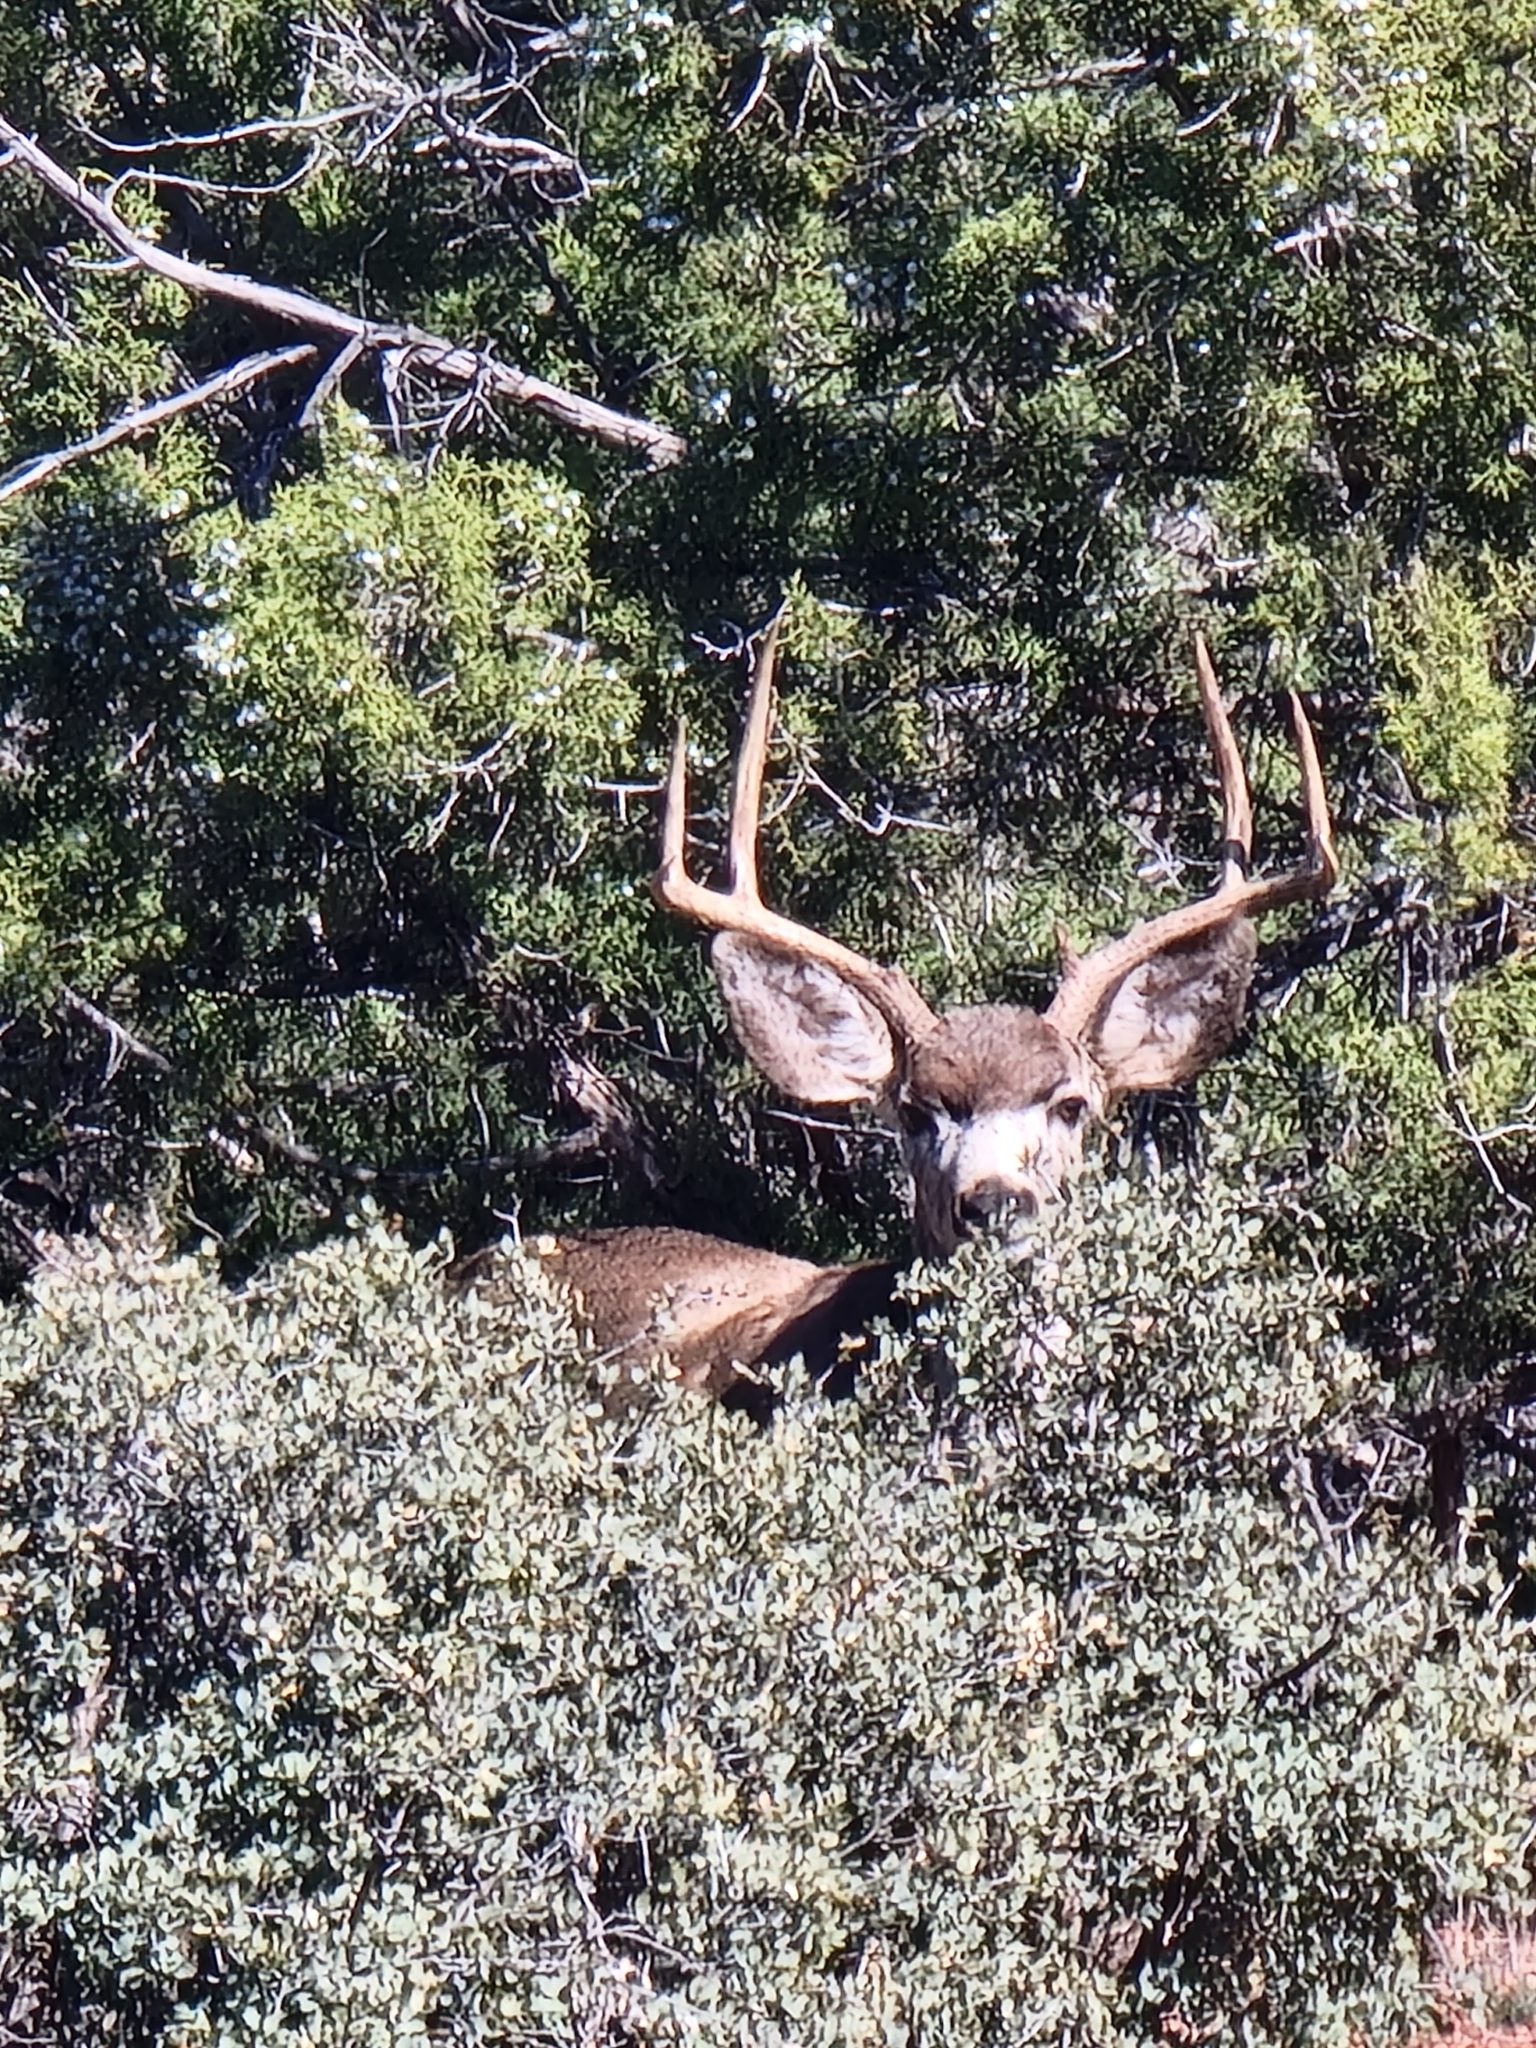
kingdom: Animalia
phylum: Chordata
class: Mammalia
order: Artiodactyla
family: Cervidae
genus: Odocoileus
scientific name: Odocoileus hemionus
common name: Mule deer
